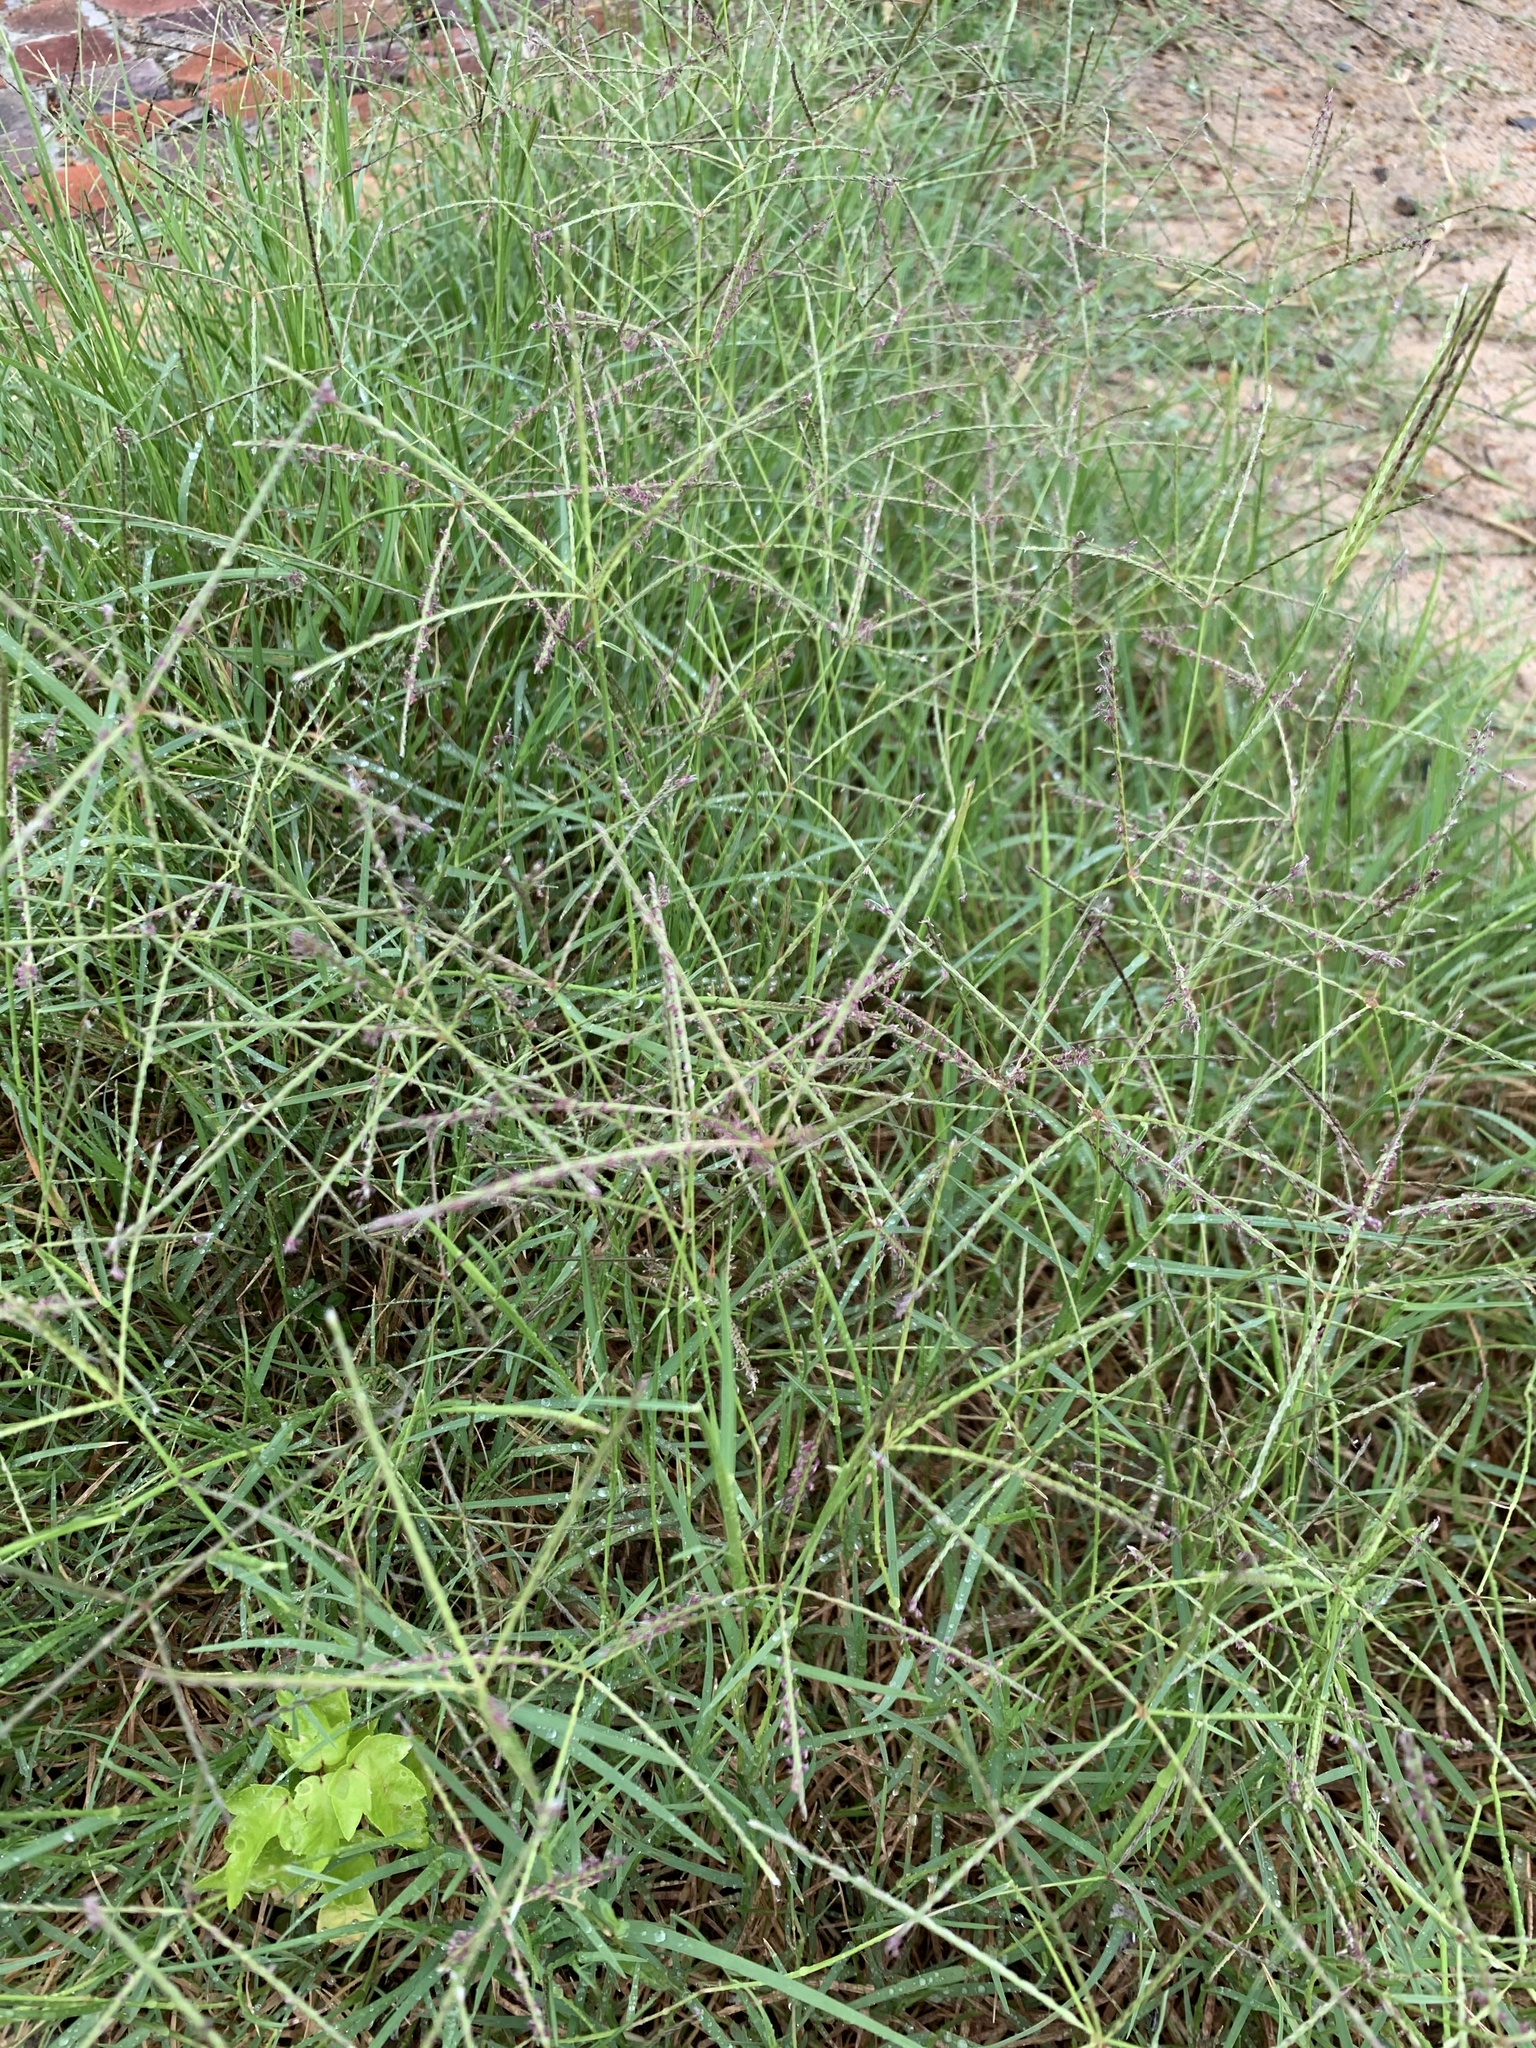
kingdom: Plantae
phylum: Tracheophyta
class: Liliopsida
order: Poales
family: Poaceae
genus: Cynodon
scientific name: Cynodon dactylon
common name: Bermuda grass
